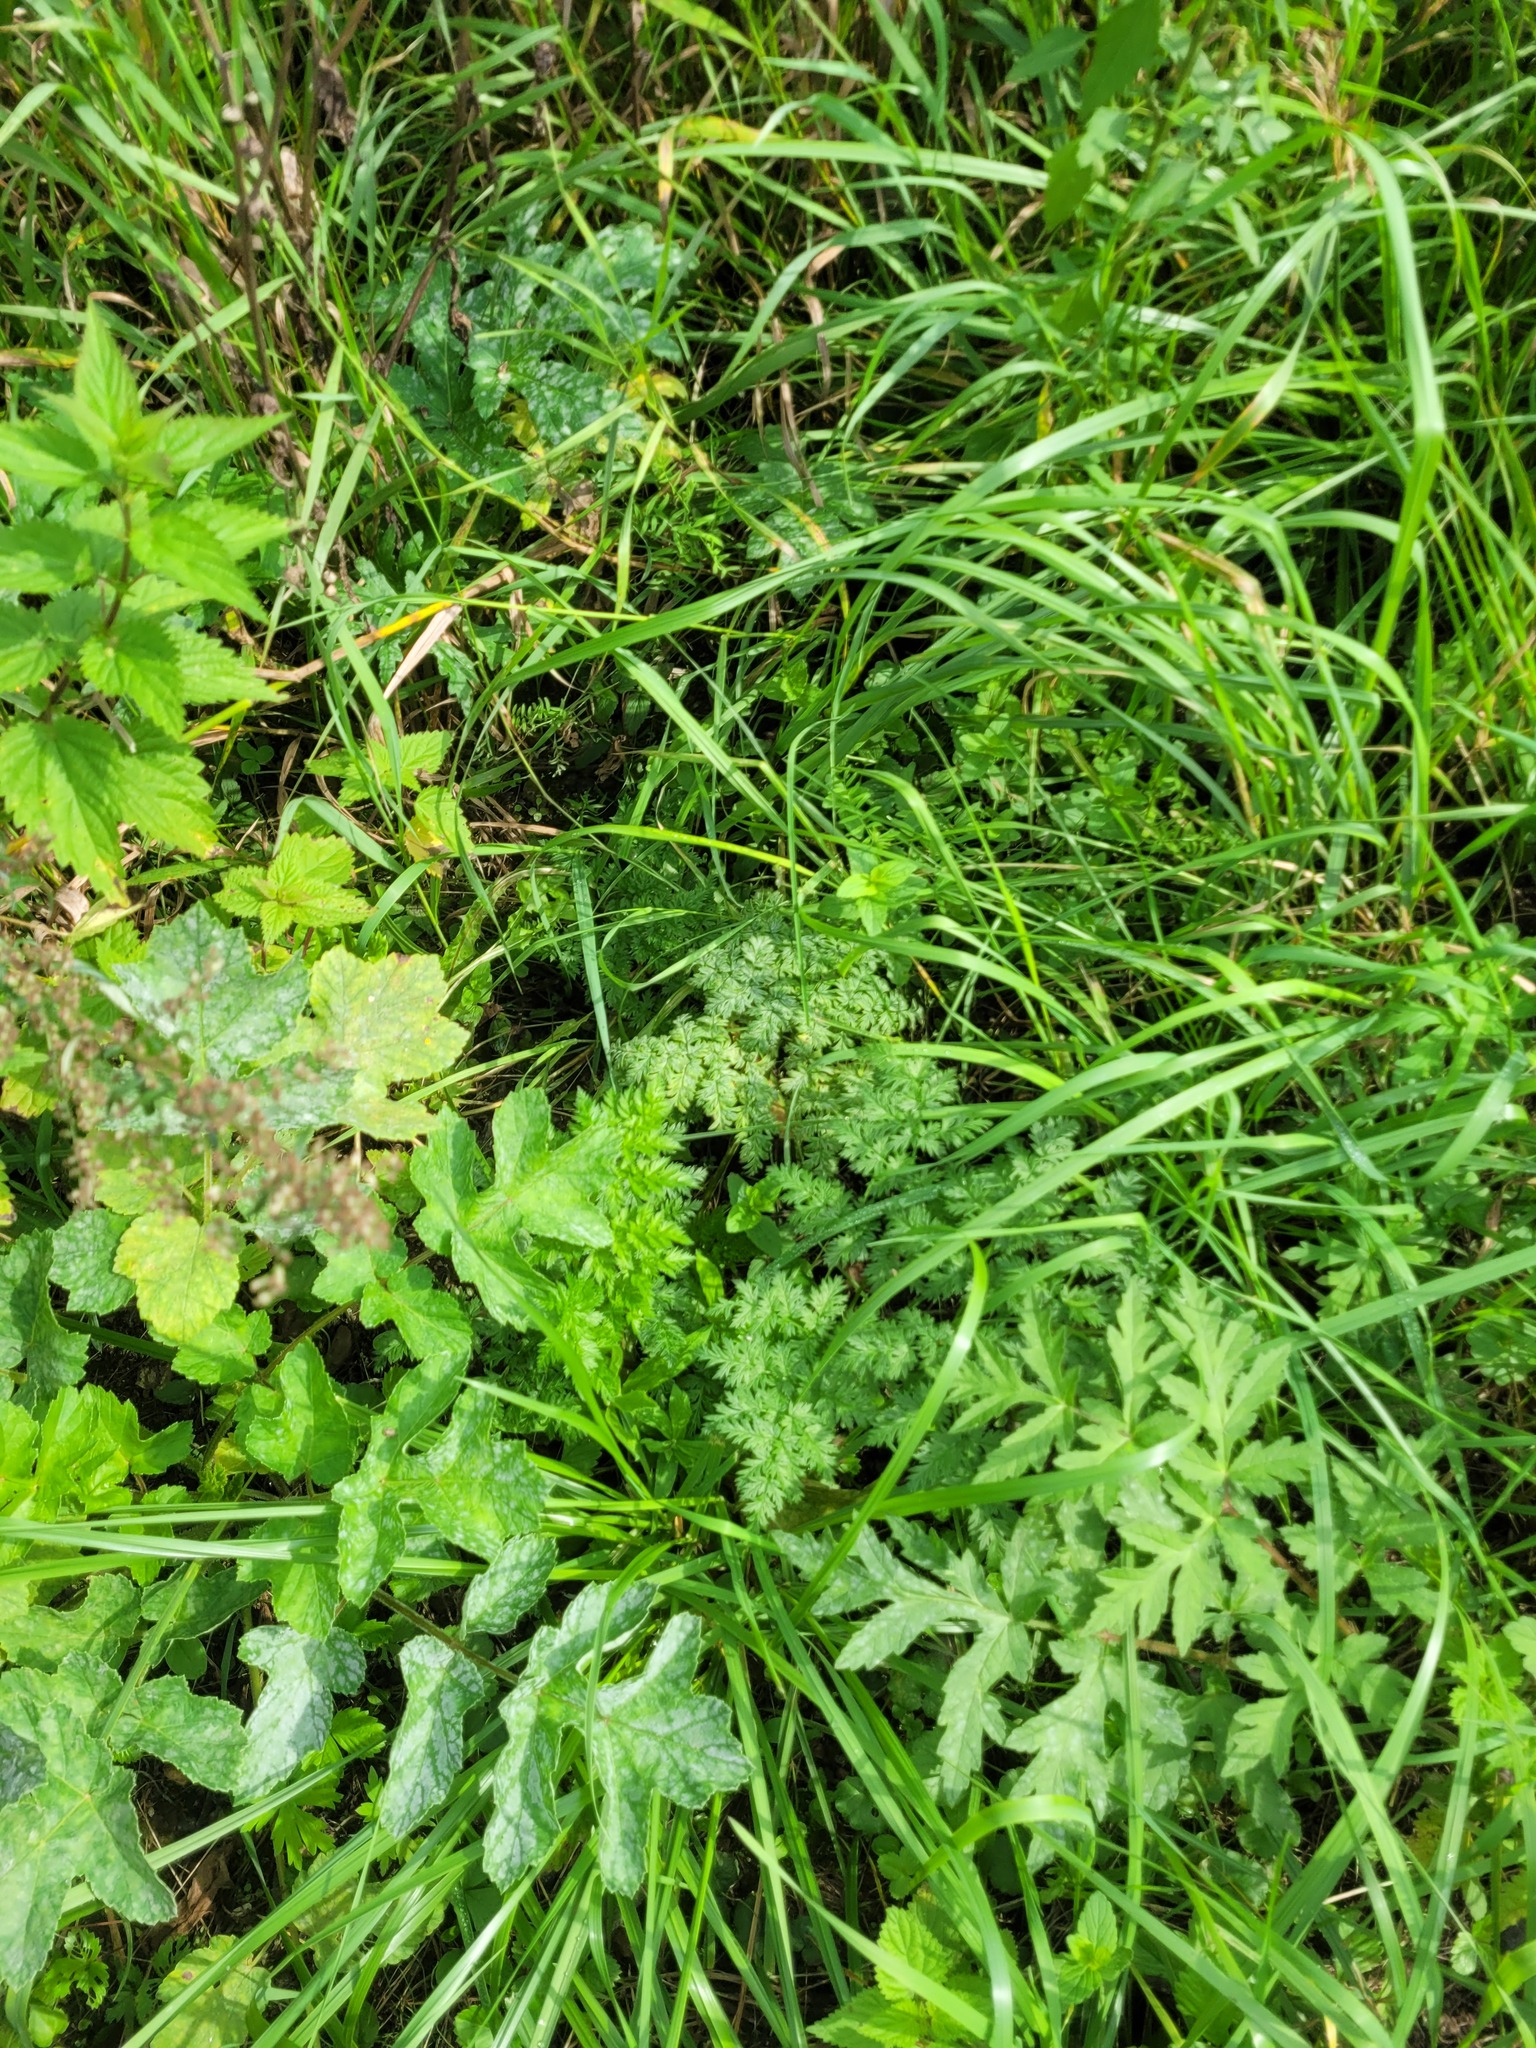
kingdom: Plantae
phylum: Tracheophyta
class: Magnoliopsida
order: Apiales
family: Apiaceae
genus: Anthriscus
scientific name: Anthriscus sylvestris
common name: Cow parsley
